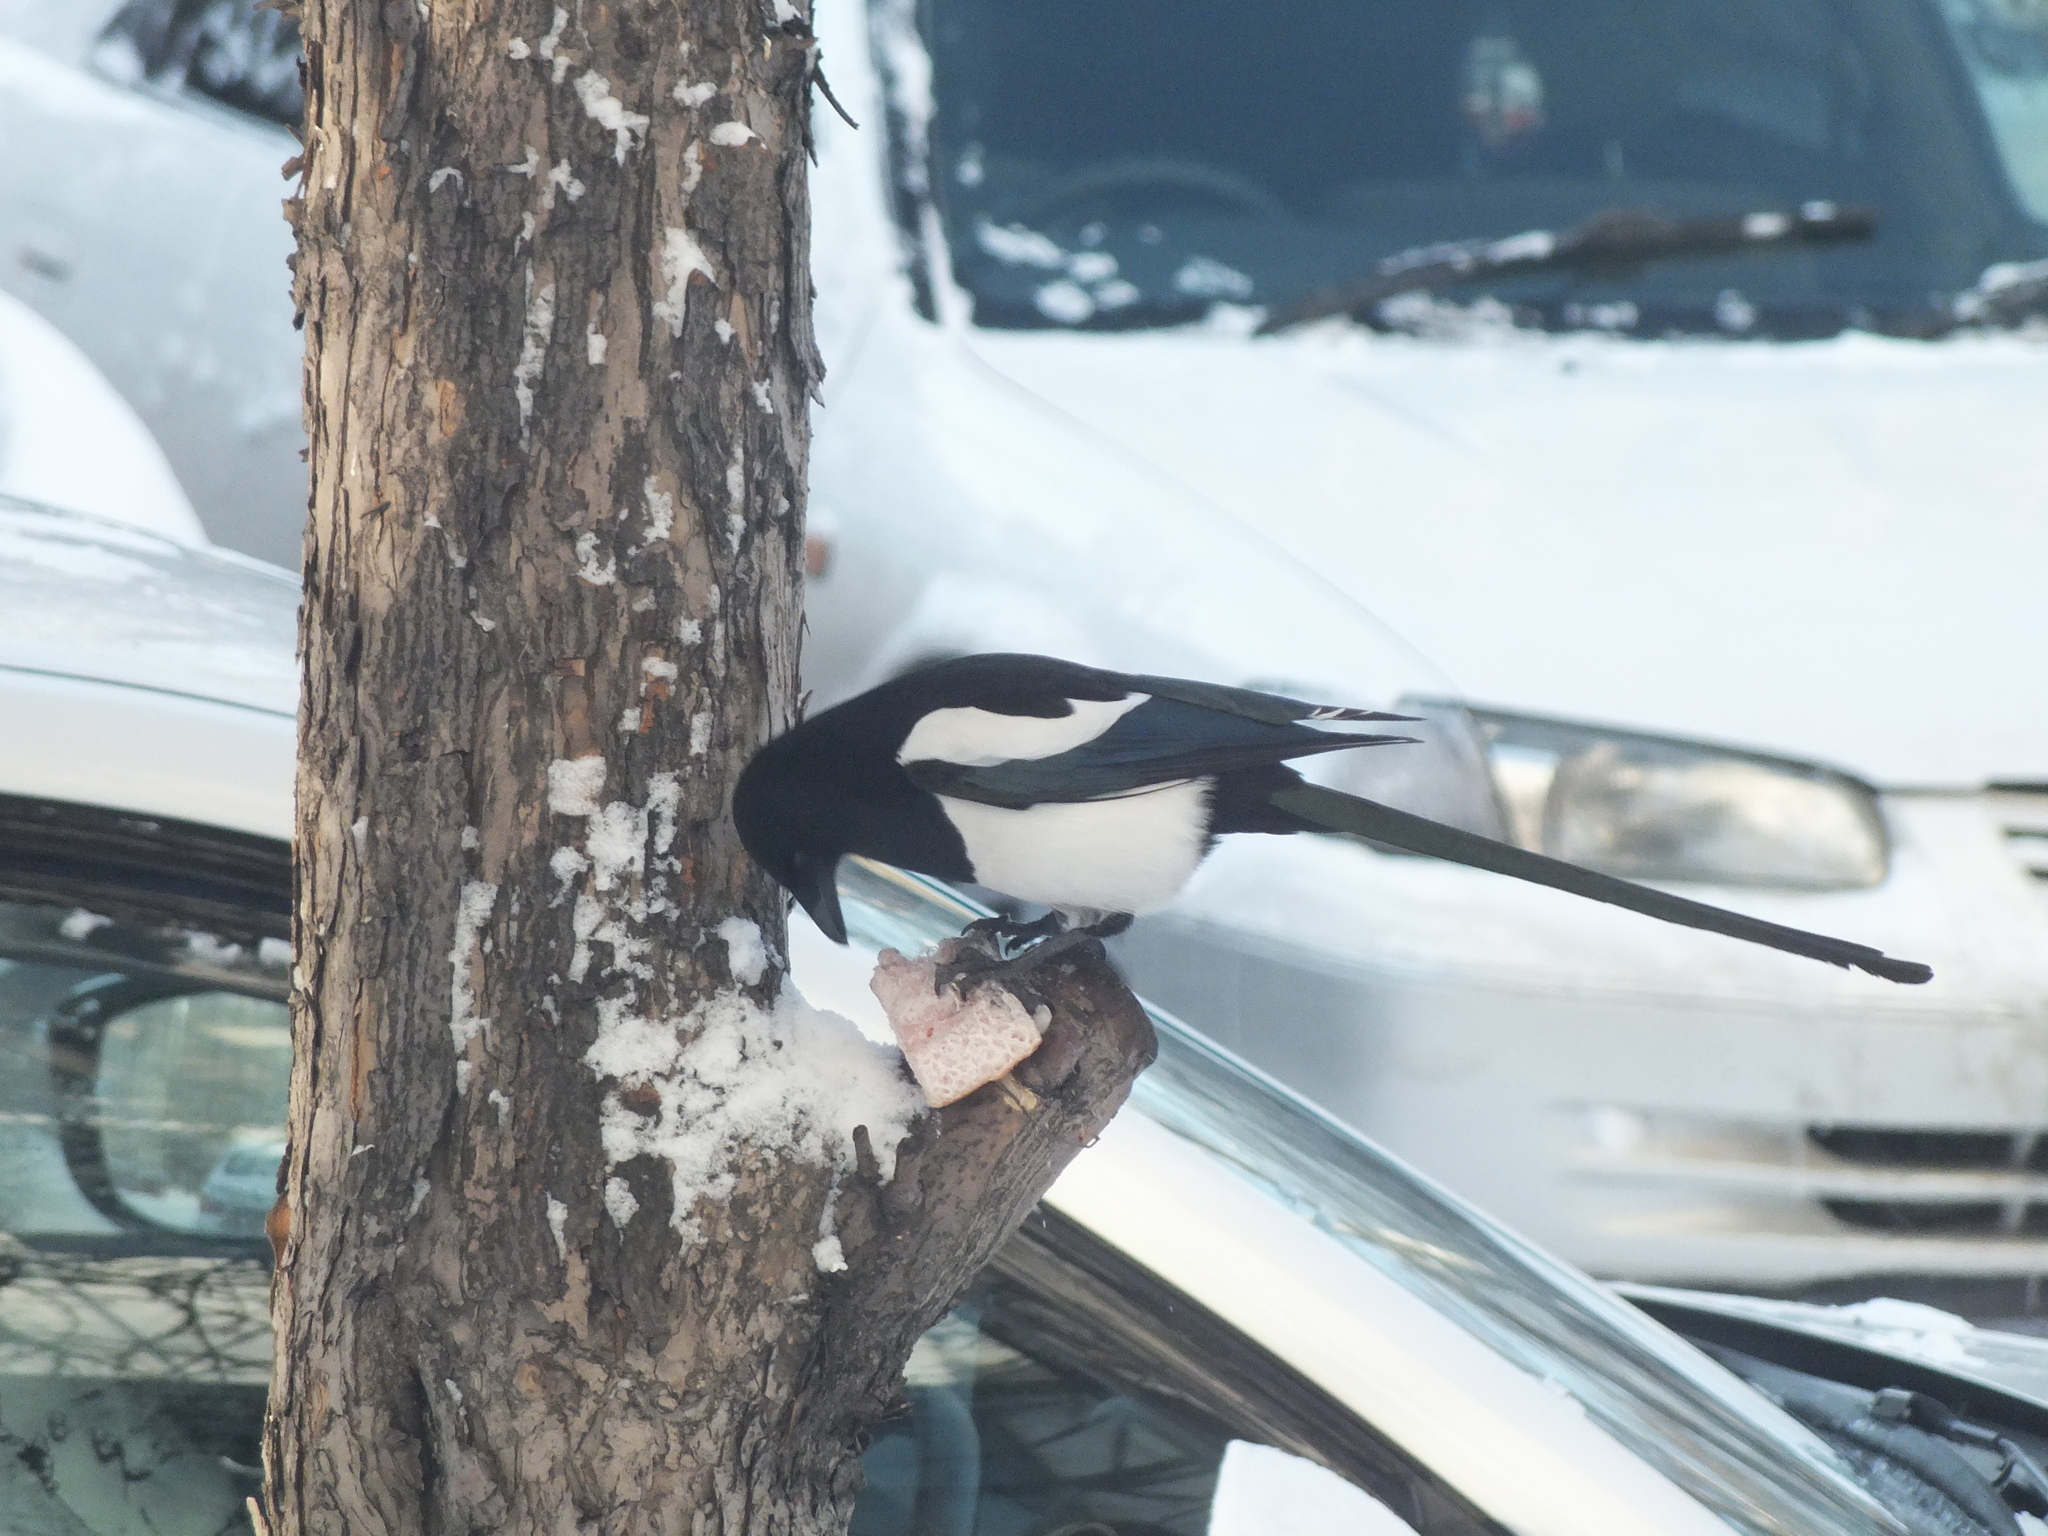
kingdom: Animalia
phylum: Chordata
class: Aves
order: Passeriformes
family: Corvidae
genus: Pica
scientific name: Pica pica
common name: Eurasian magpie
